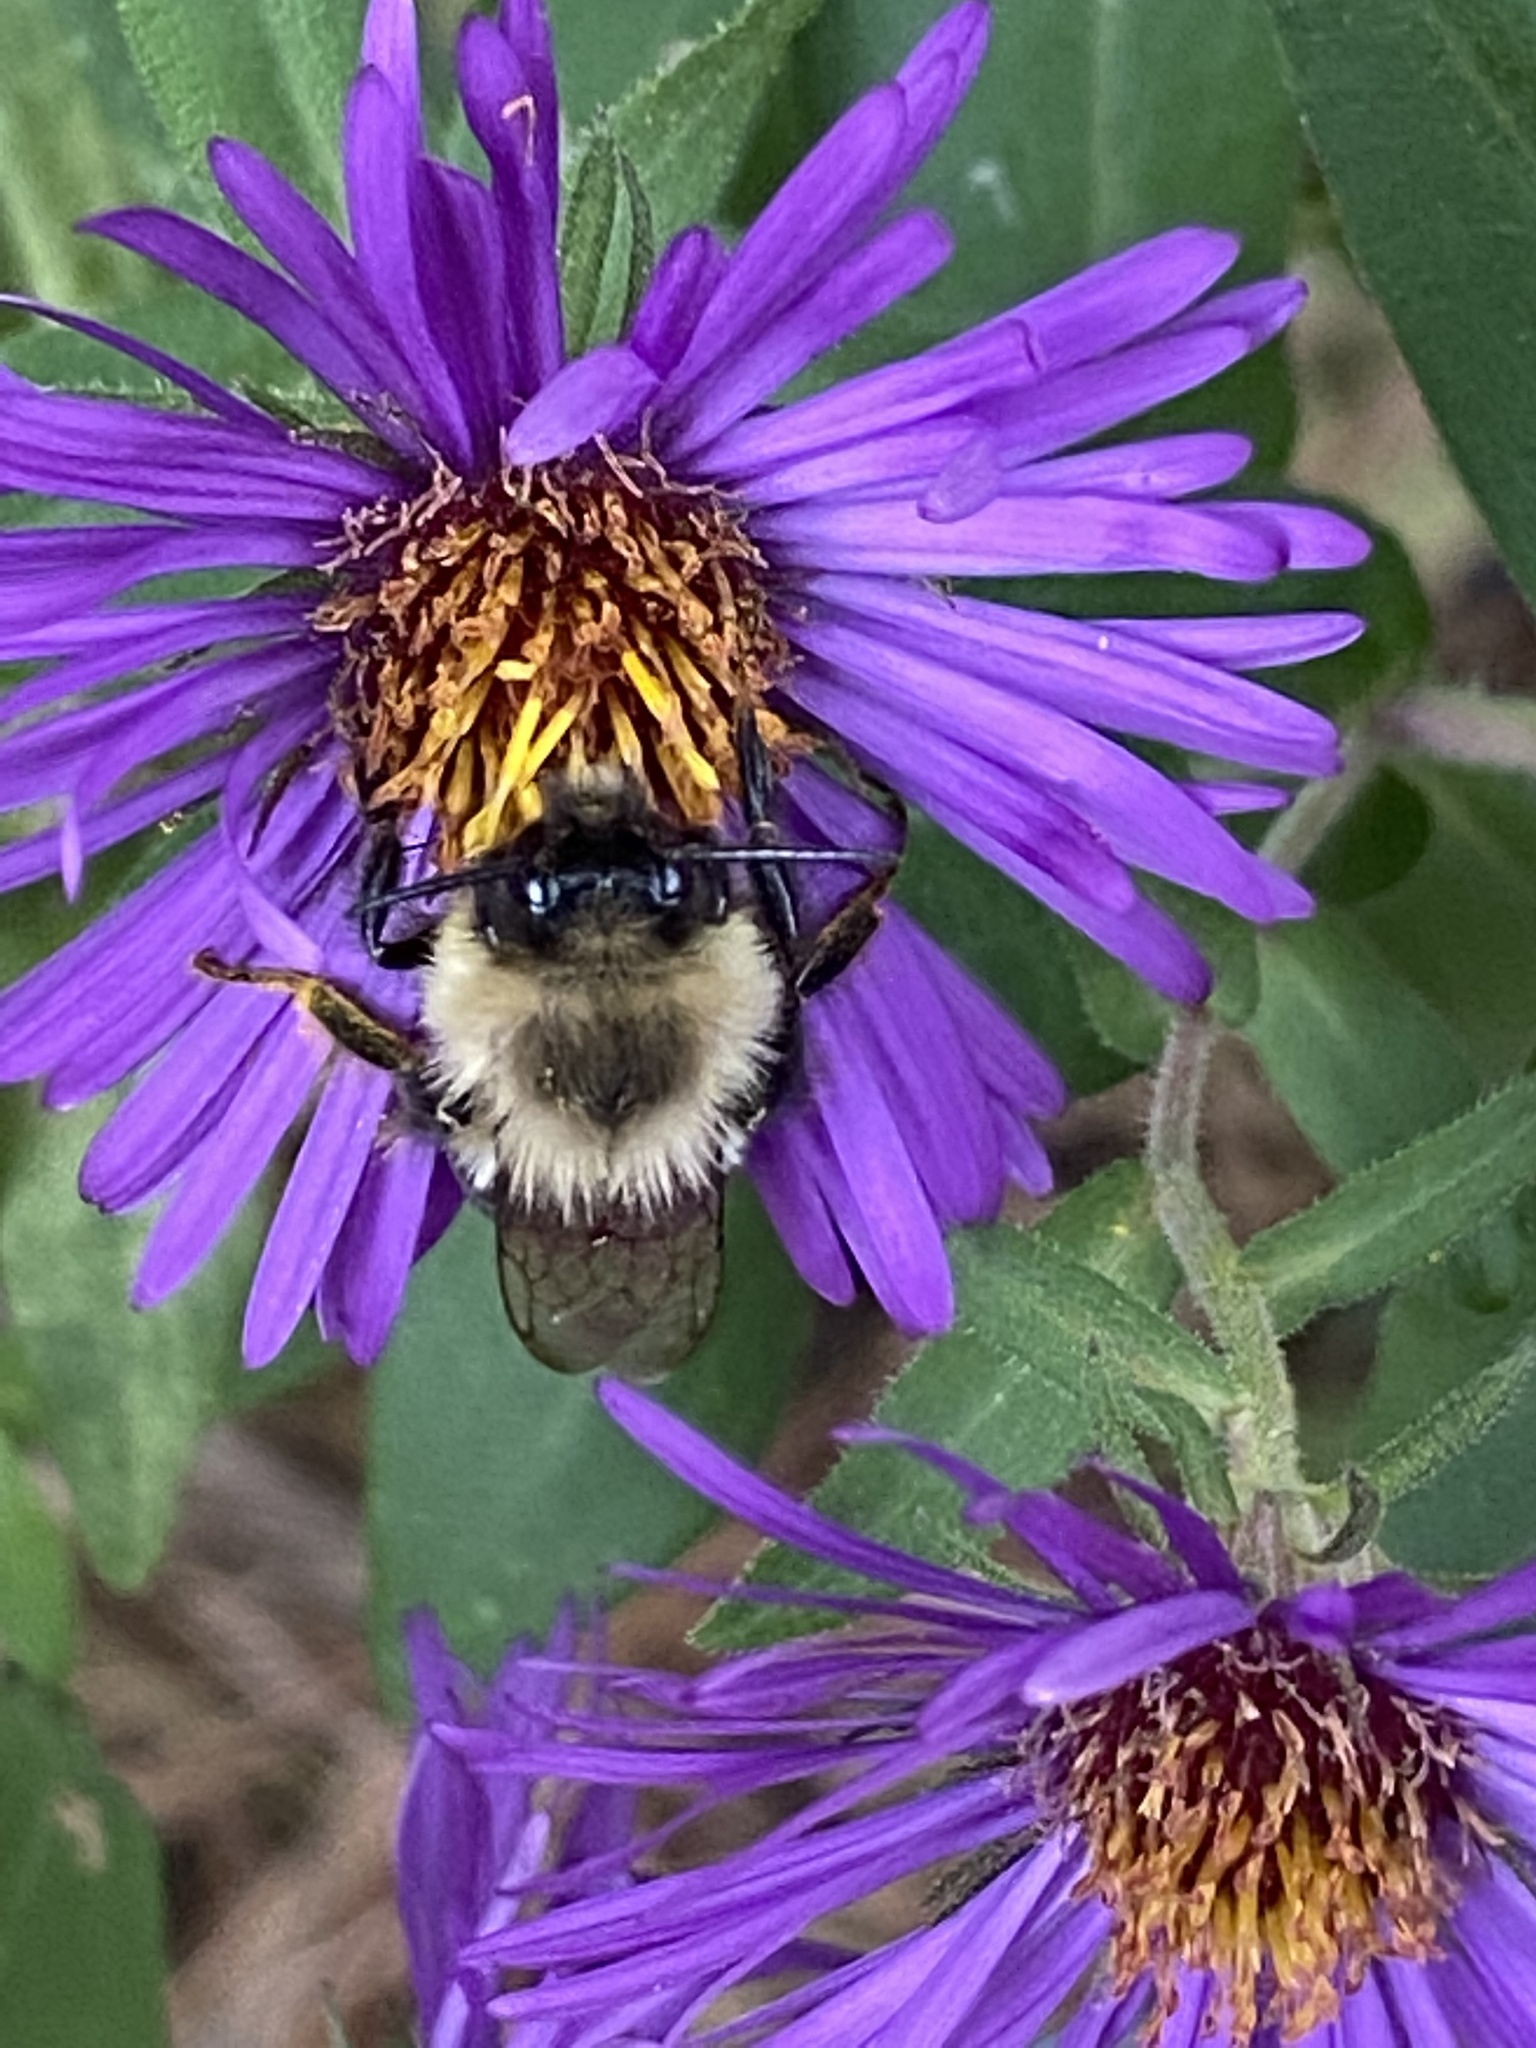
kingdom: Animalia
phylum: Arthropoda
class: Insecta
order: Hymenoptera
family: Apidae
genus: Bombus
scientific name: Bombus impatiens
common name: Common eastern bumble bee
